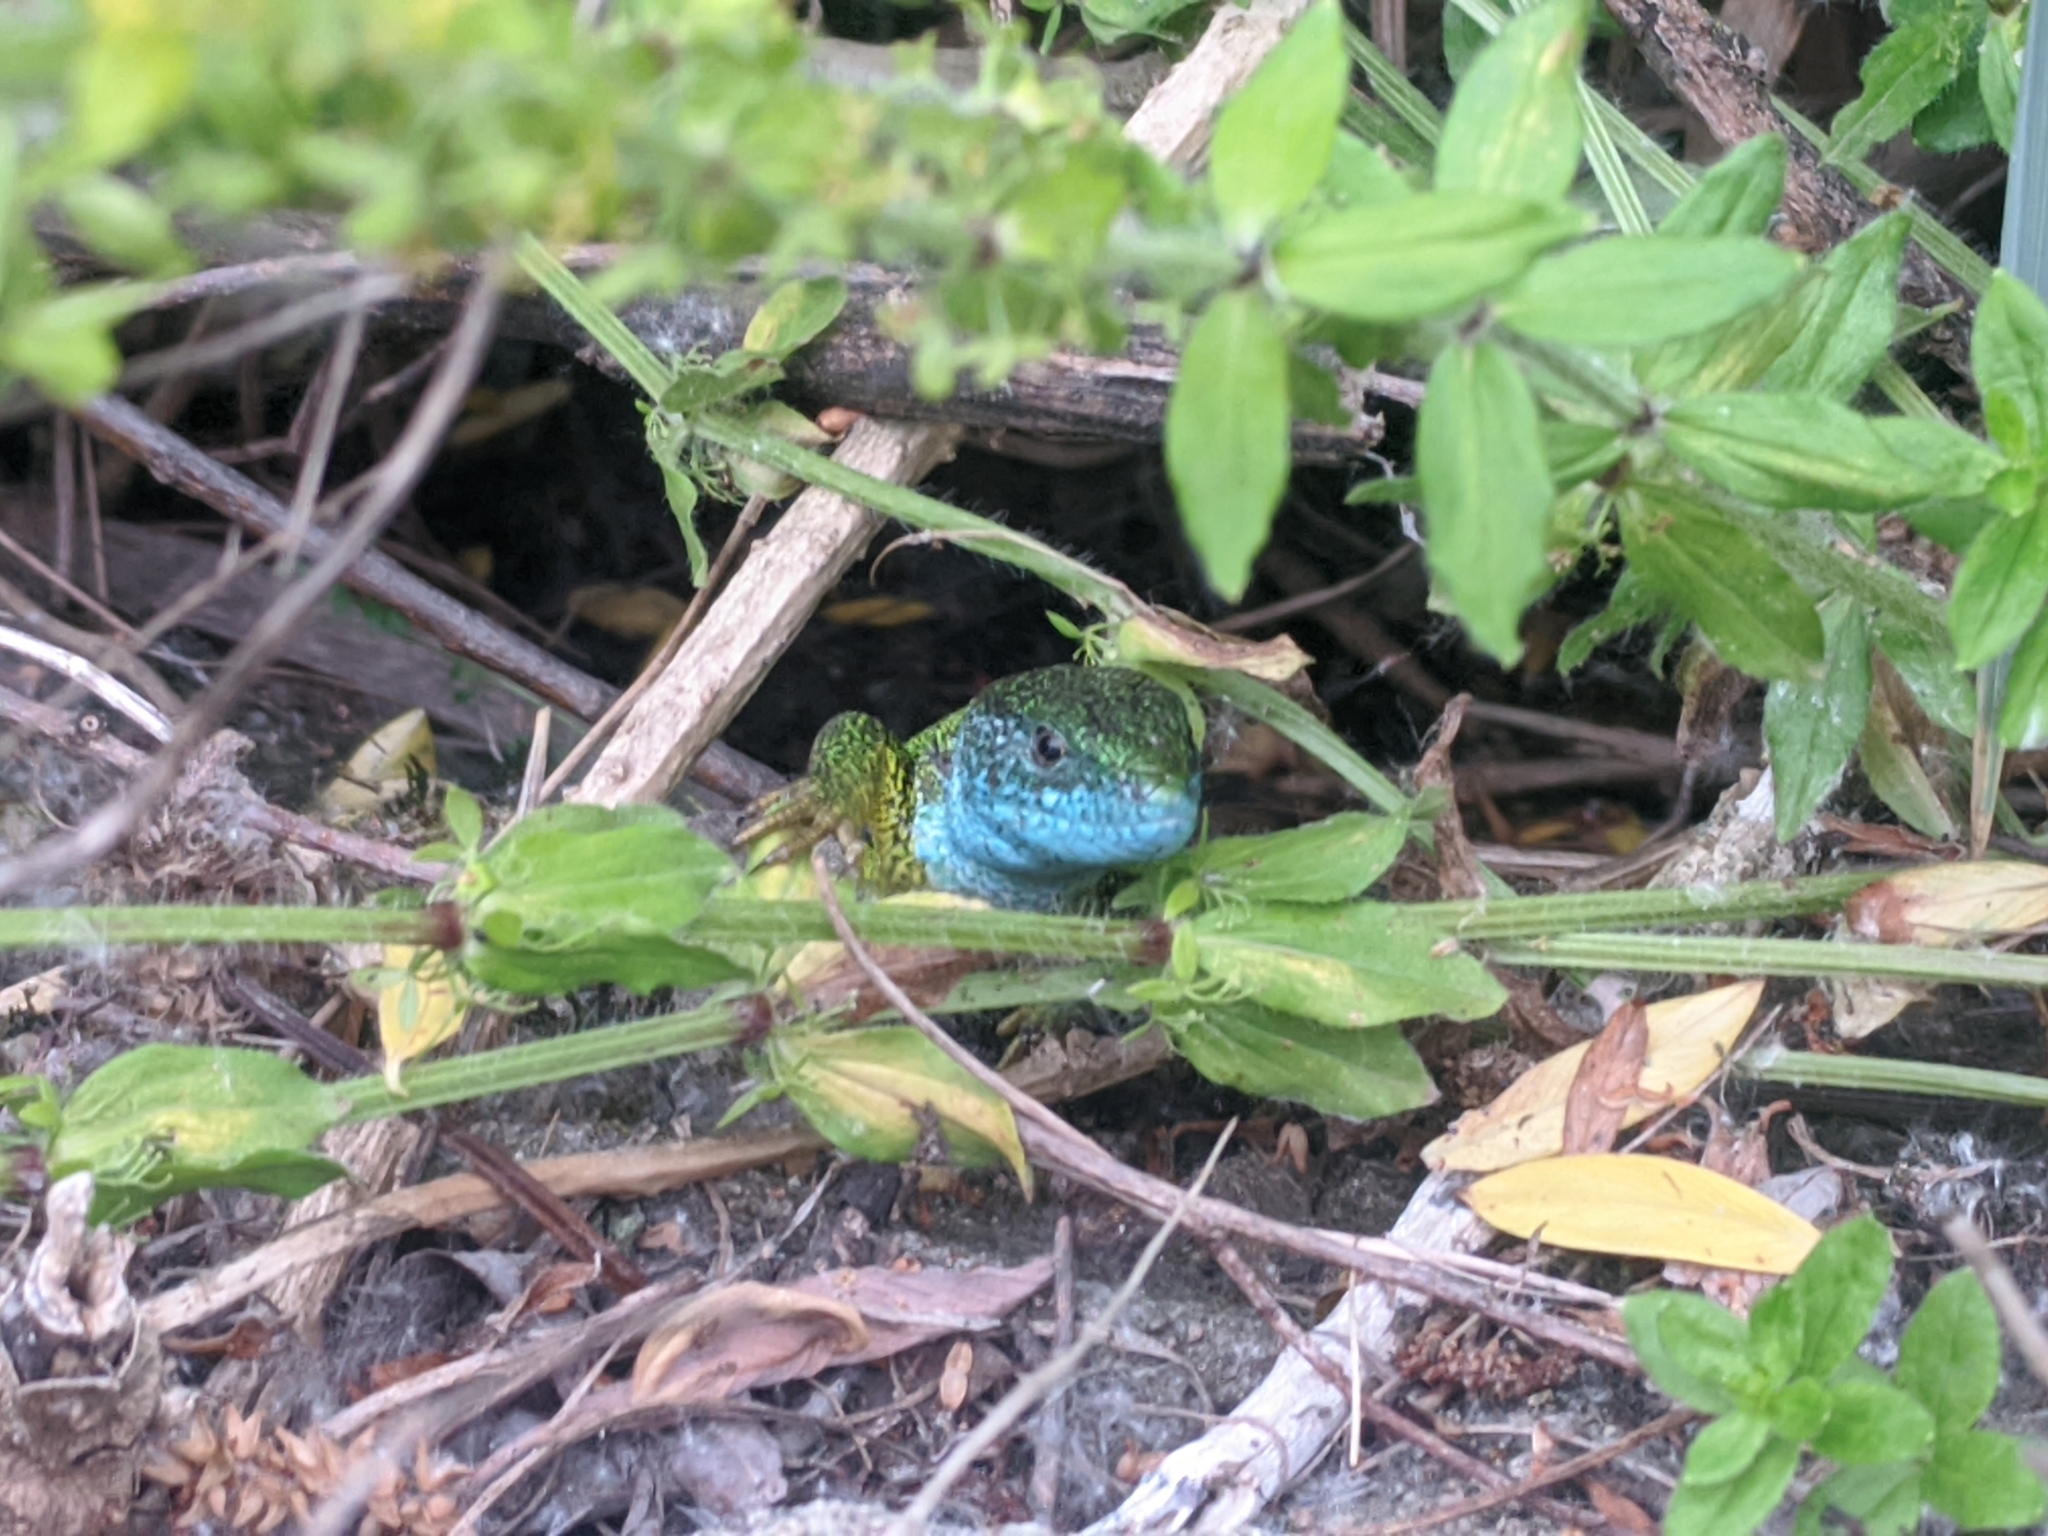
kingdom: Animalia
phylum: Chordata
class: Squamata
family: Lacertidae
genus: Lacerta
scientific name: Lacerta viridis
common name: European green lizard
